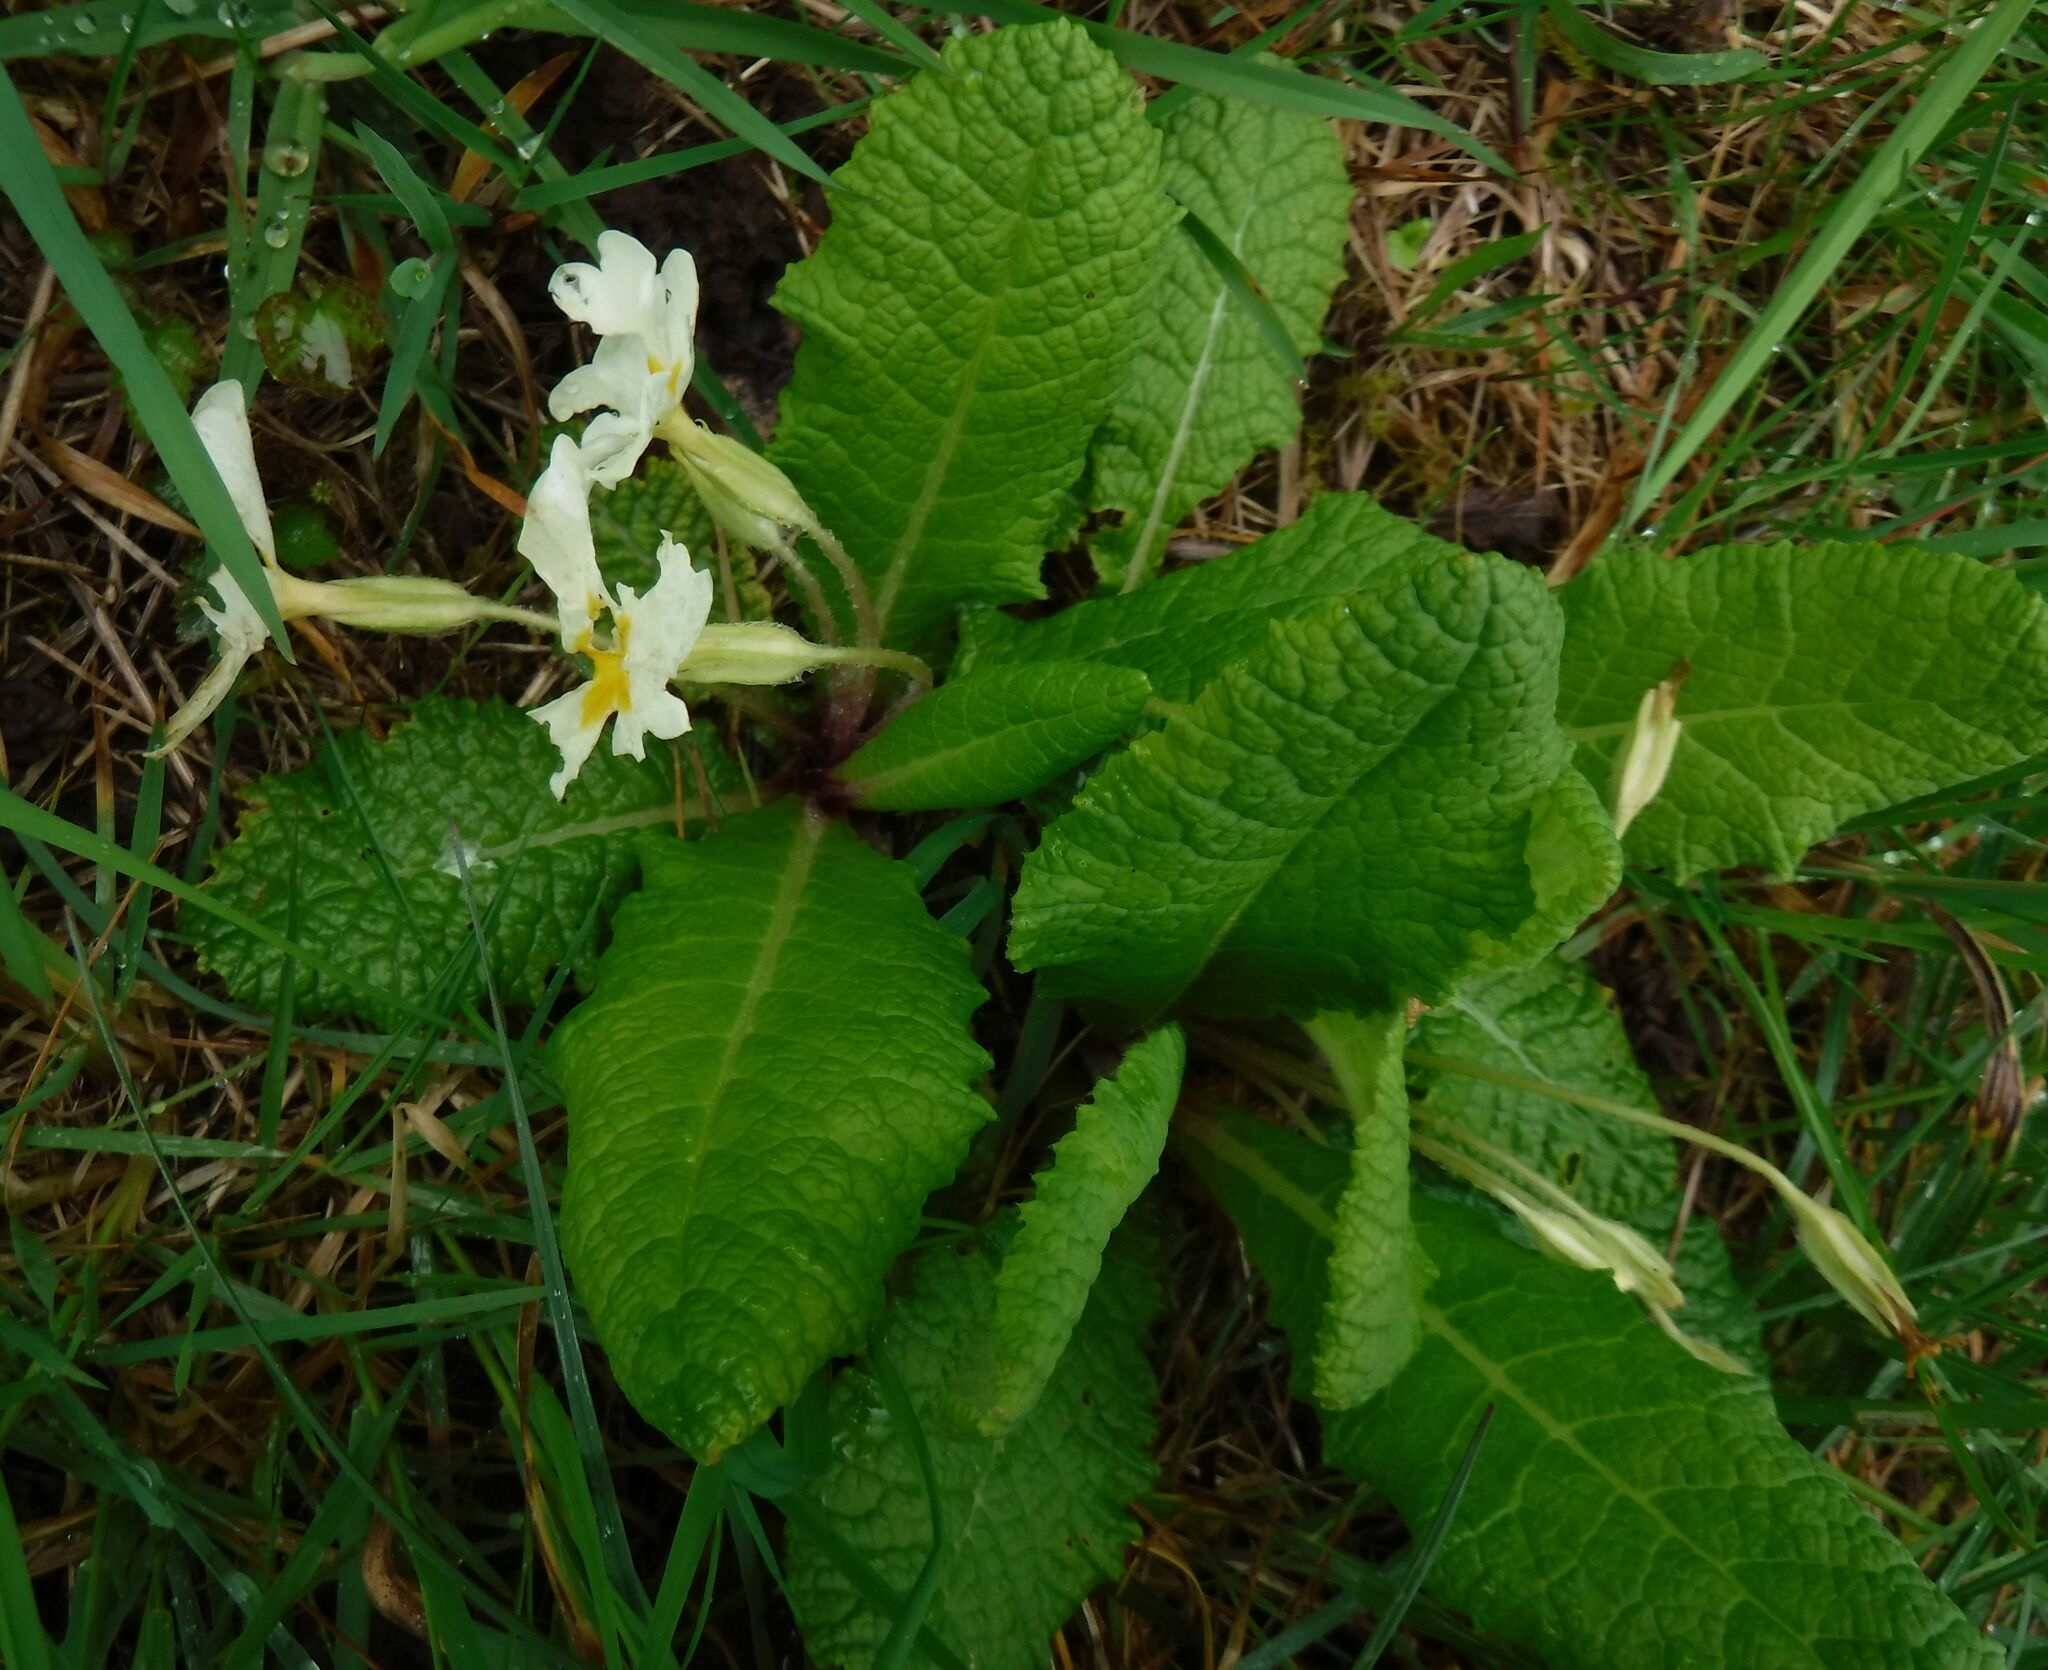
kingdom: Plantae
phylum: Tracheophyta
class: Magnoliopsida
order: Ericales
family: Primulaceae
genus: Primula
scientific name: Primula vulgaris
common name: Primrose
